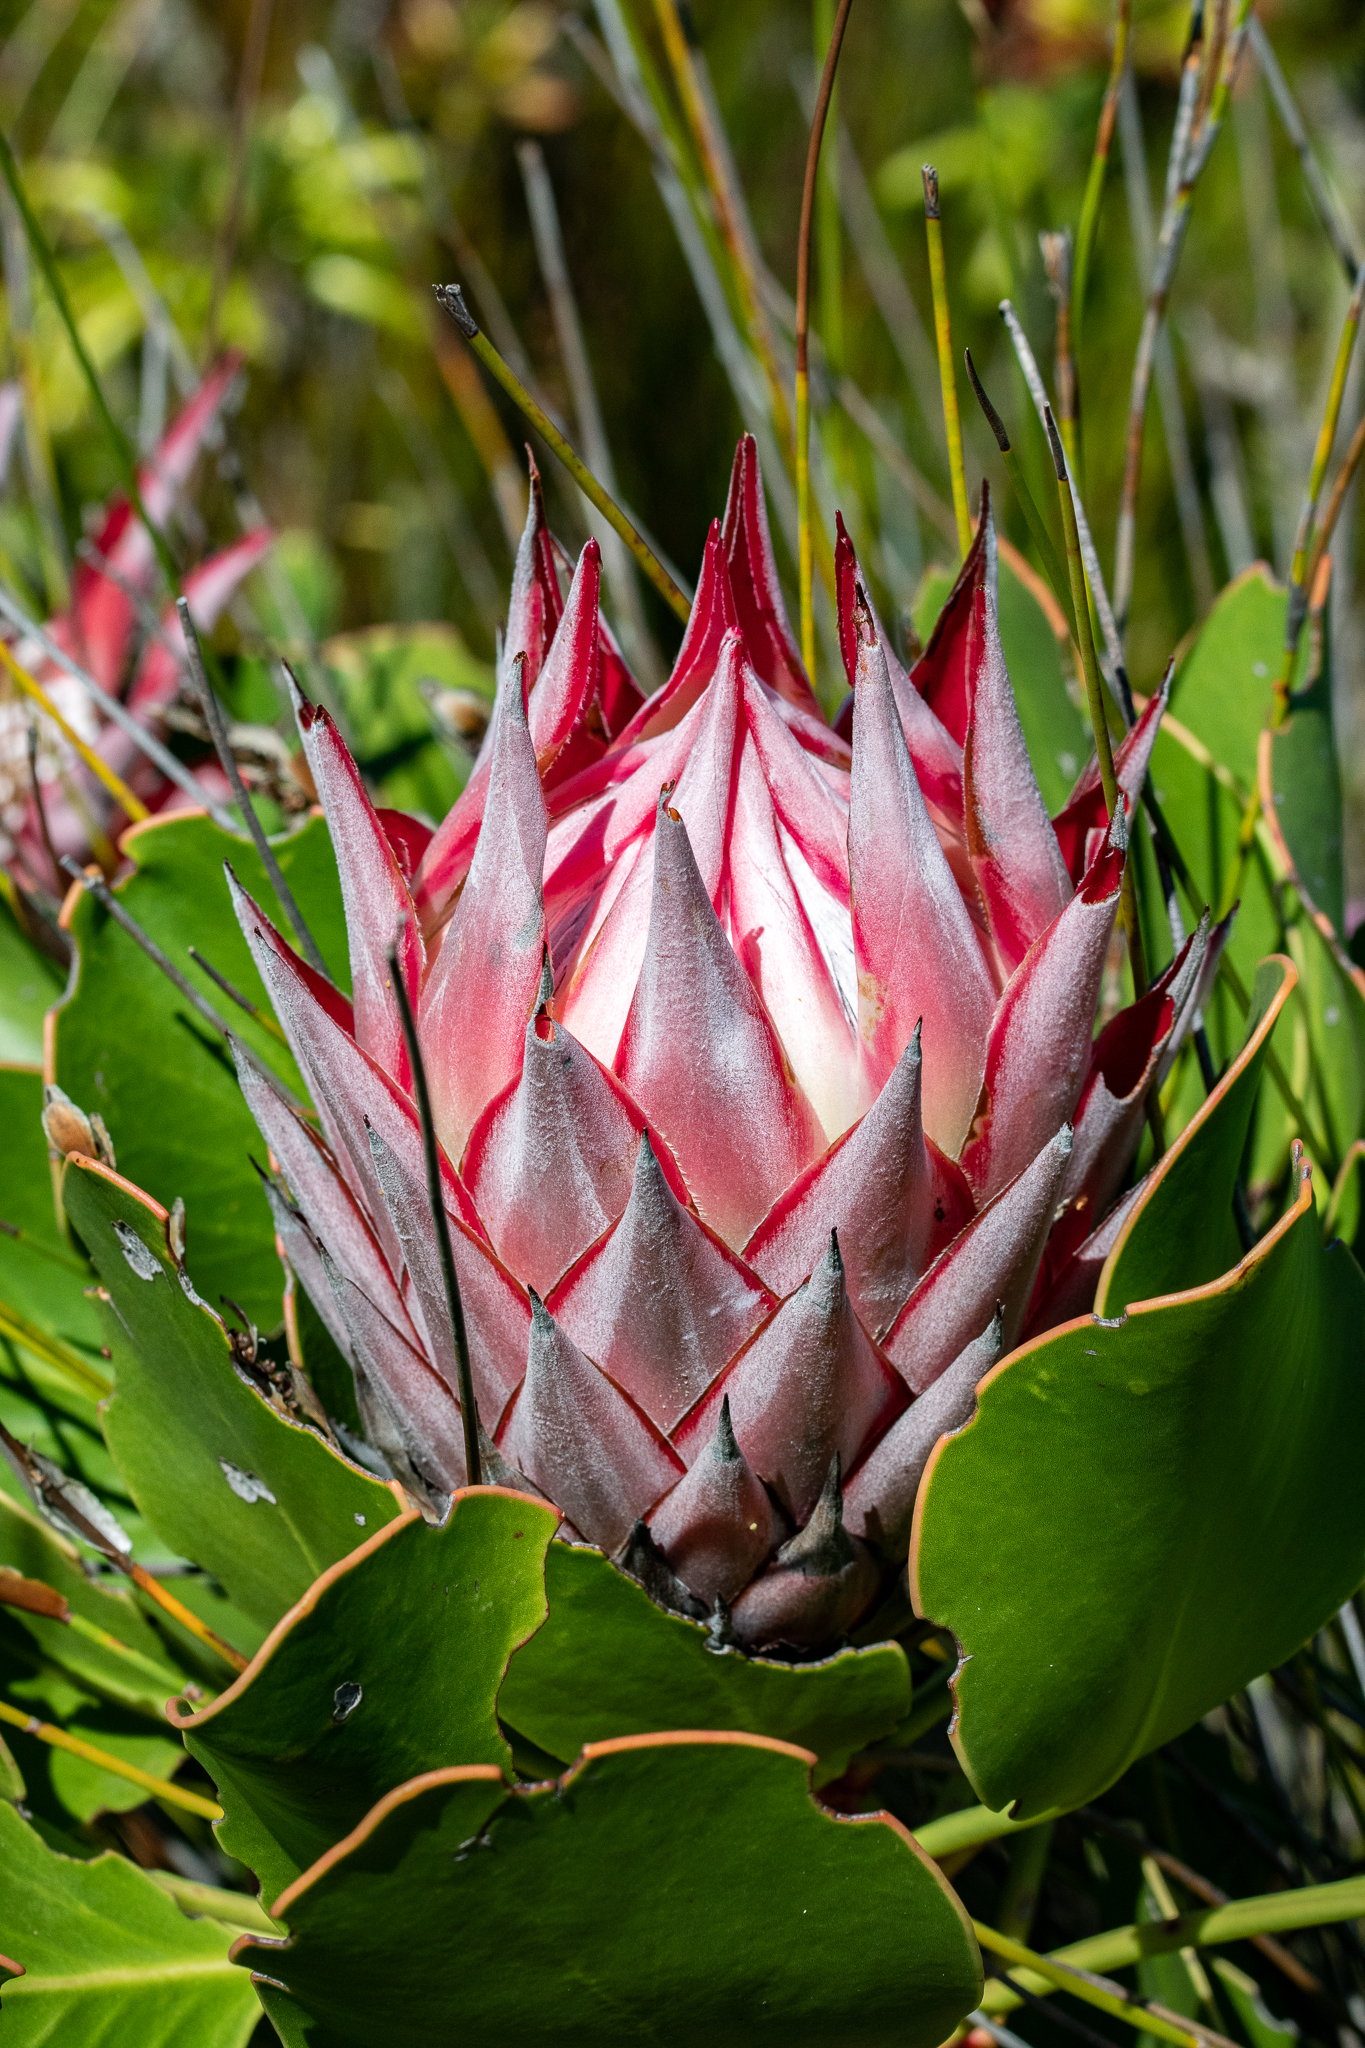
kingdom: Plantae
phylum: Tracheophyta
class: Magnoliopsida
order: Proteales
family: Proteaceae
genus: Protea
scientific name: Protea cynaroides
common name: King protea
